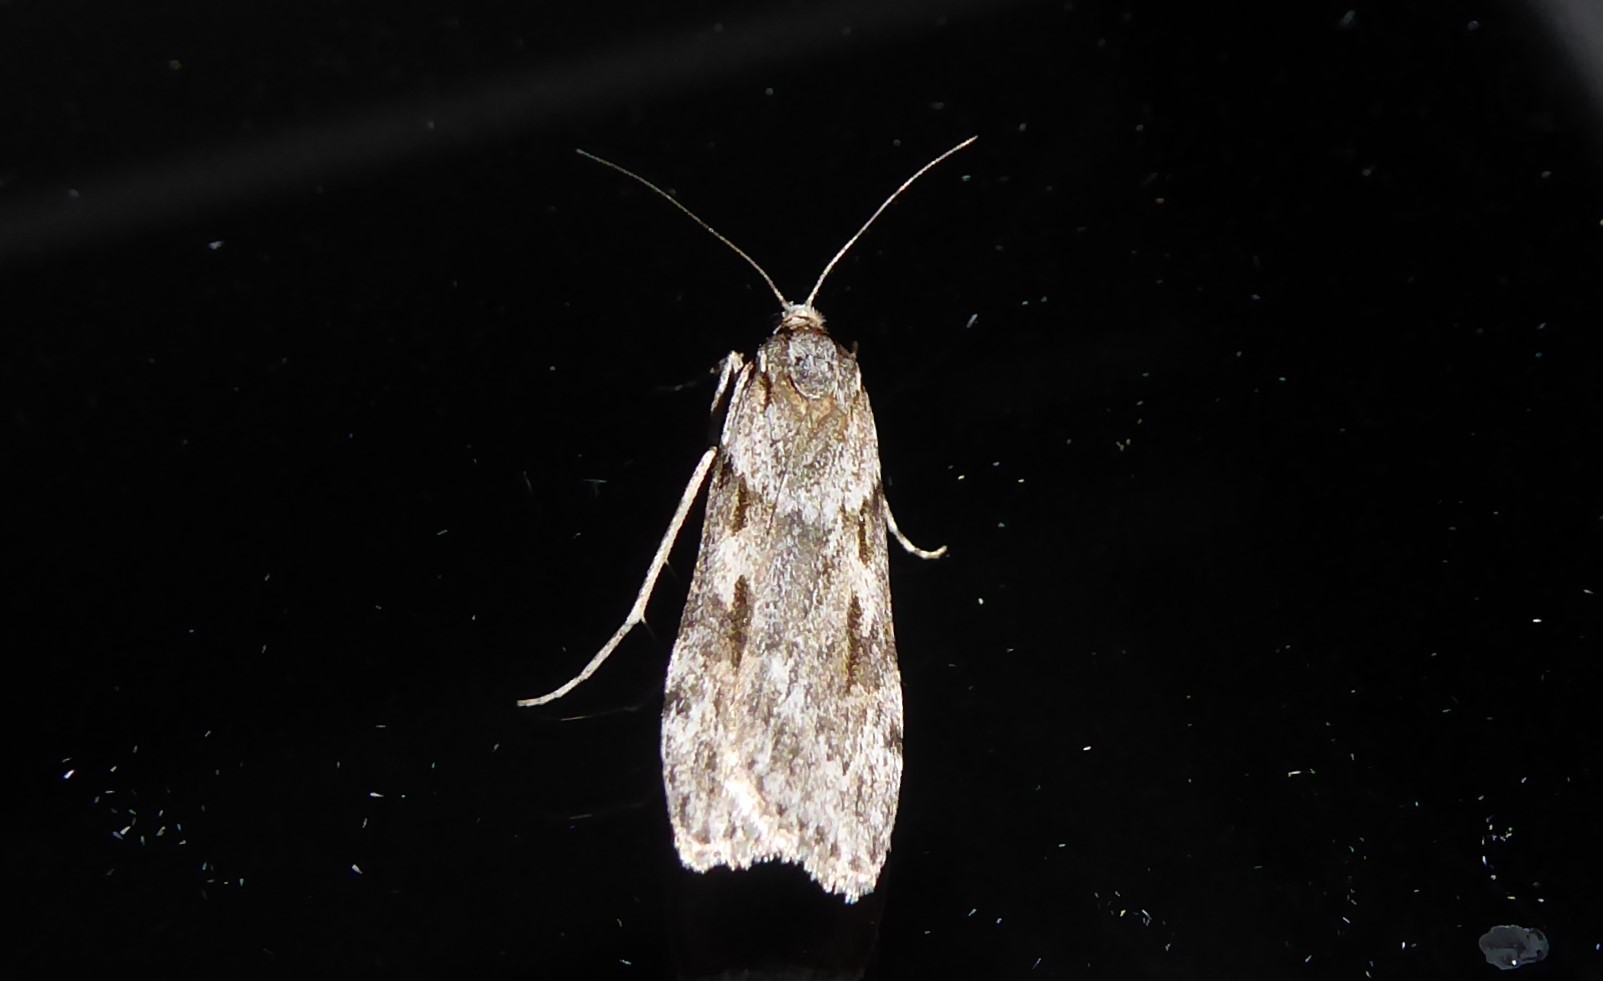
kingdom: Animalia
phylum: Arthropoda
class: Insecta
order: Lepidoptera
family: Crambidae
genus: Scoparia
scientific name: Scoparia halopis
